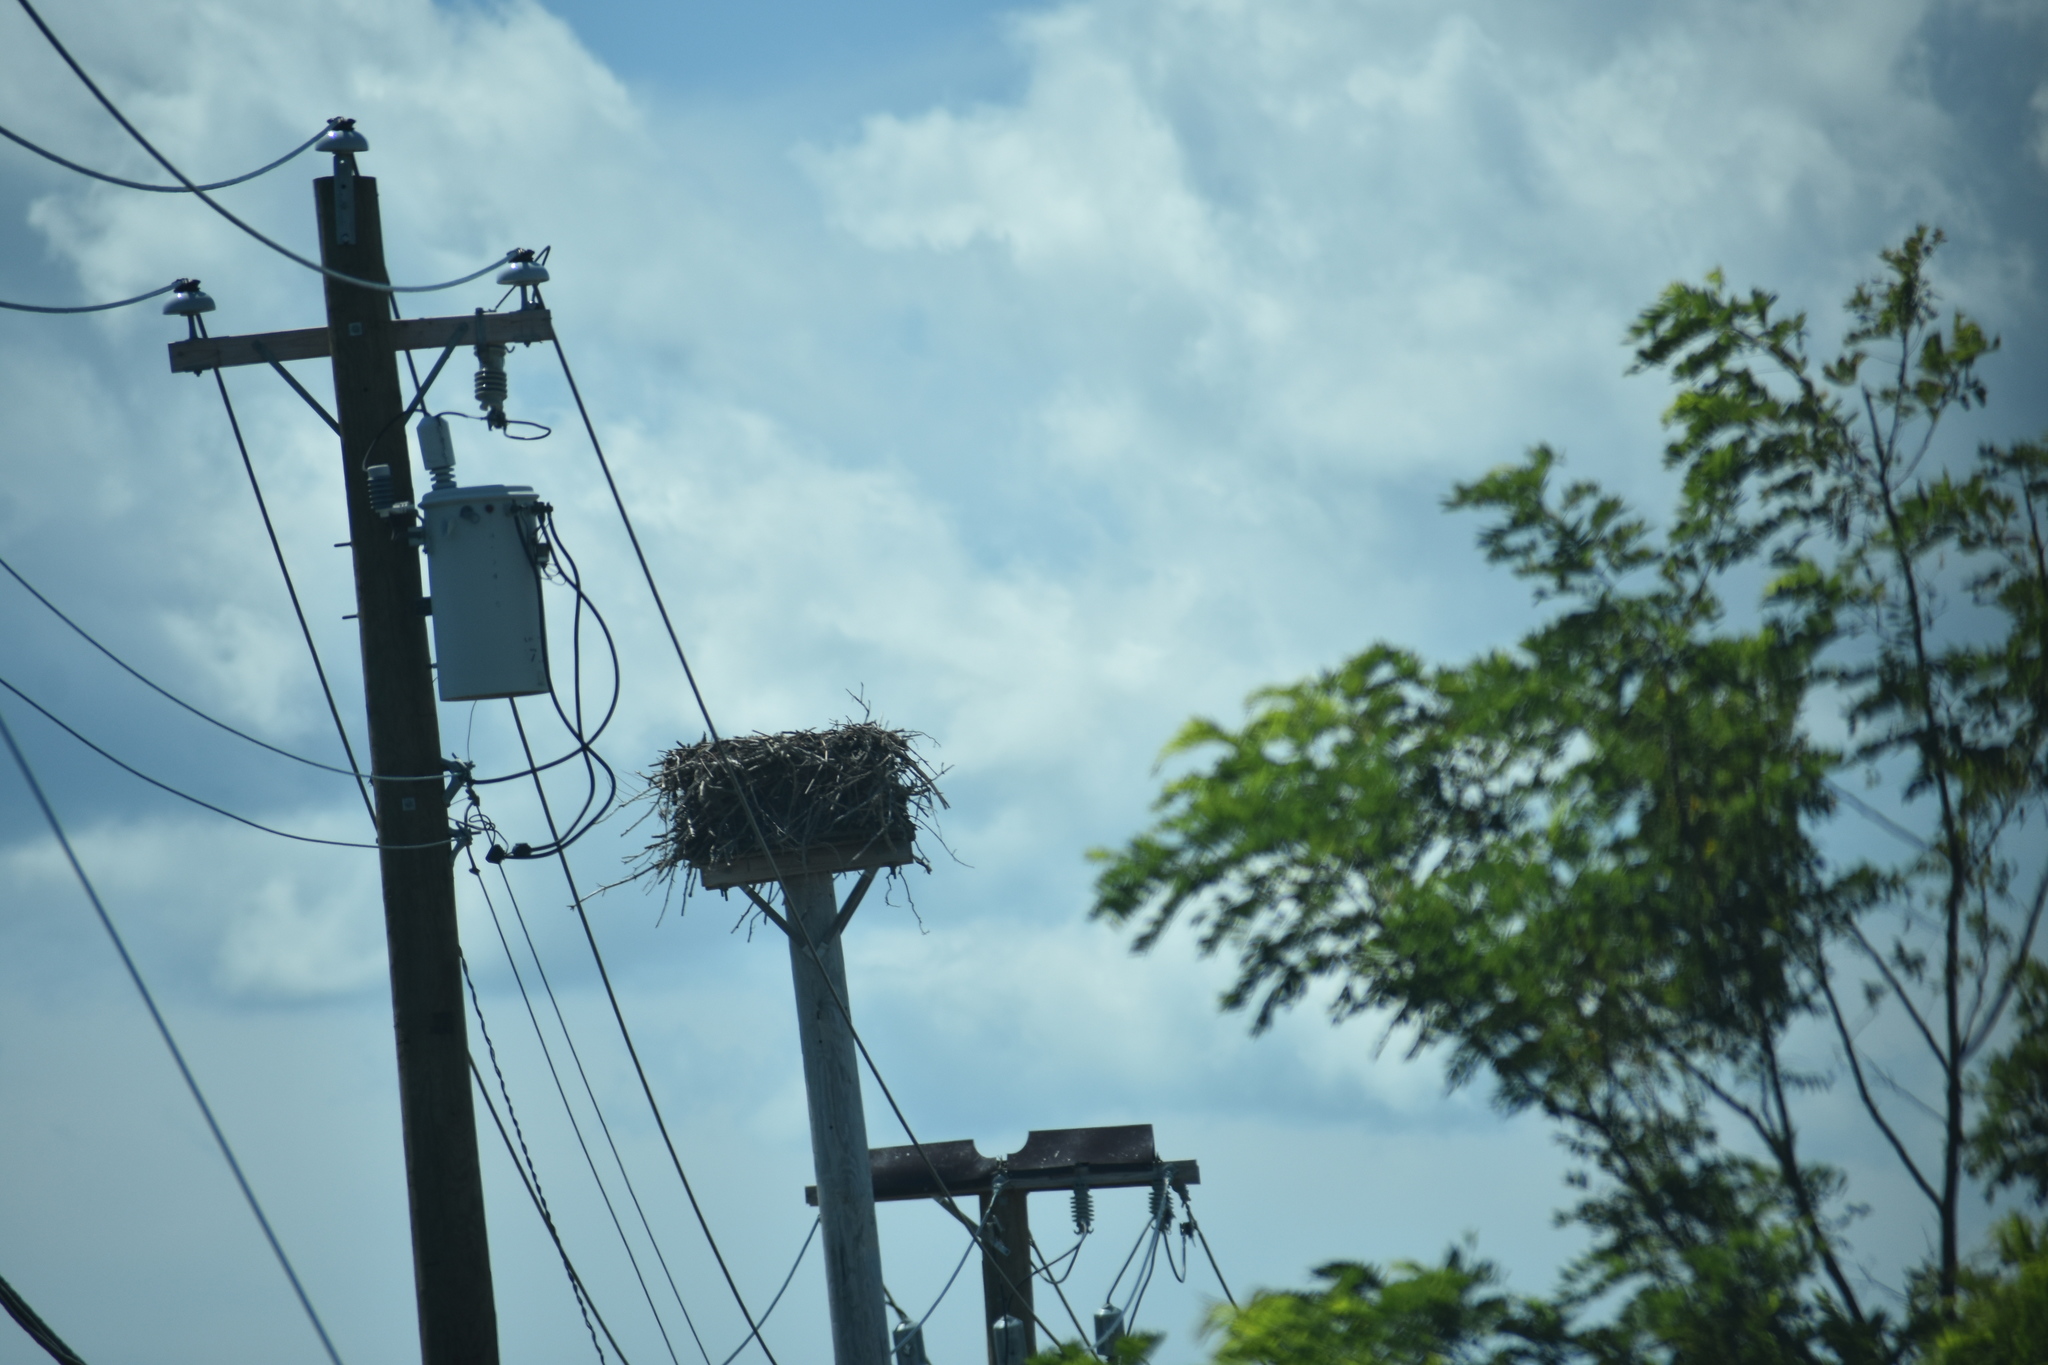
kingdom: Animalia
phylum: Chordata
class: Aves
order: Accipitriformes
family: Pandionidae
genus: Pandion
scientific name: Pandion haliaetus
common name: Osprey
